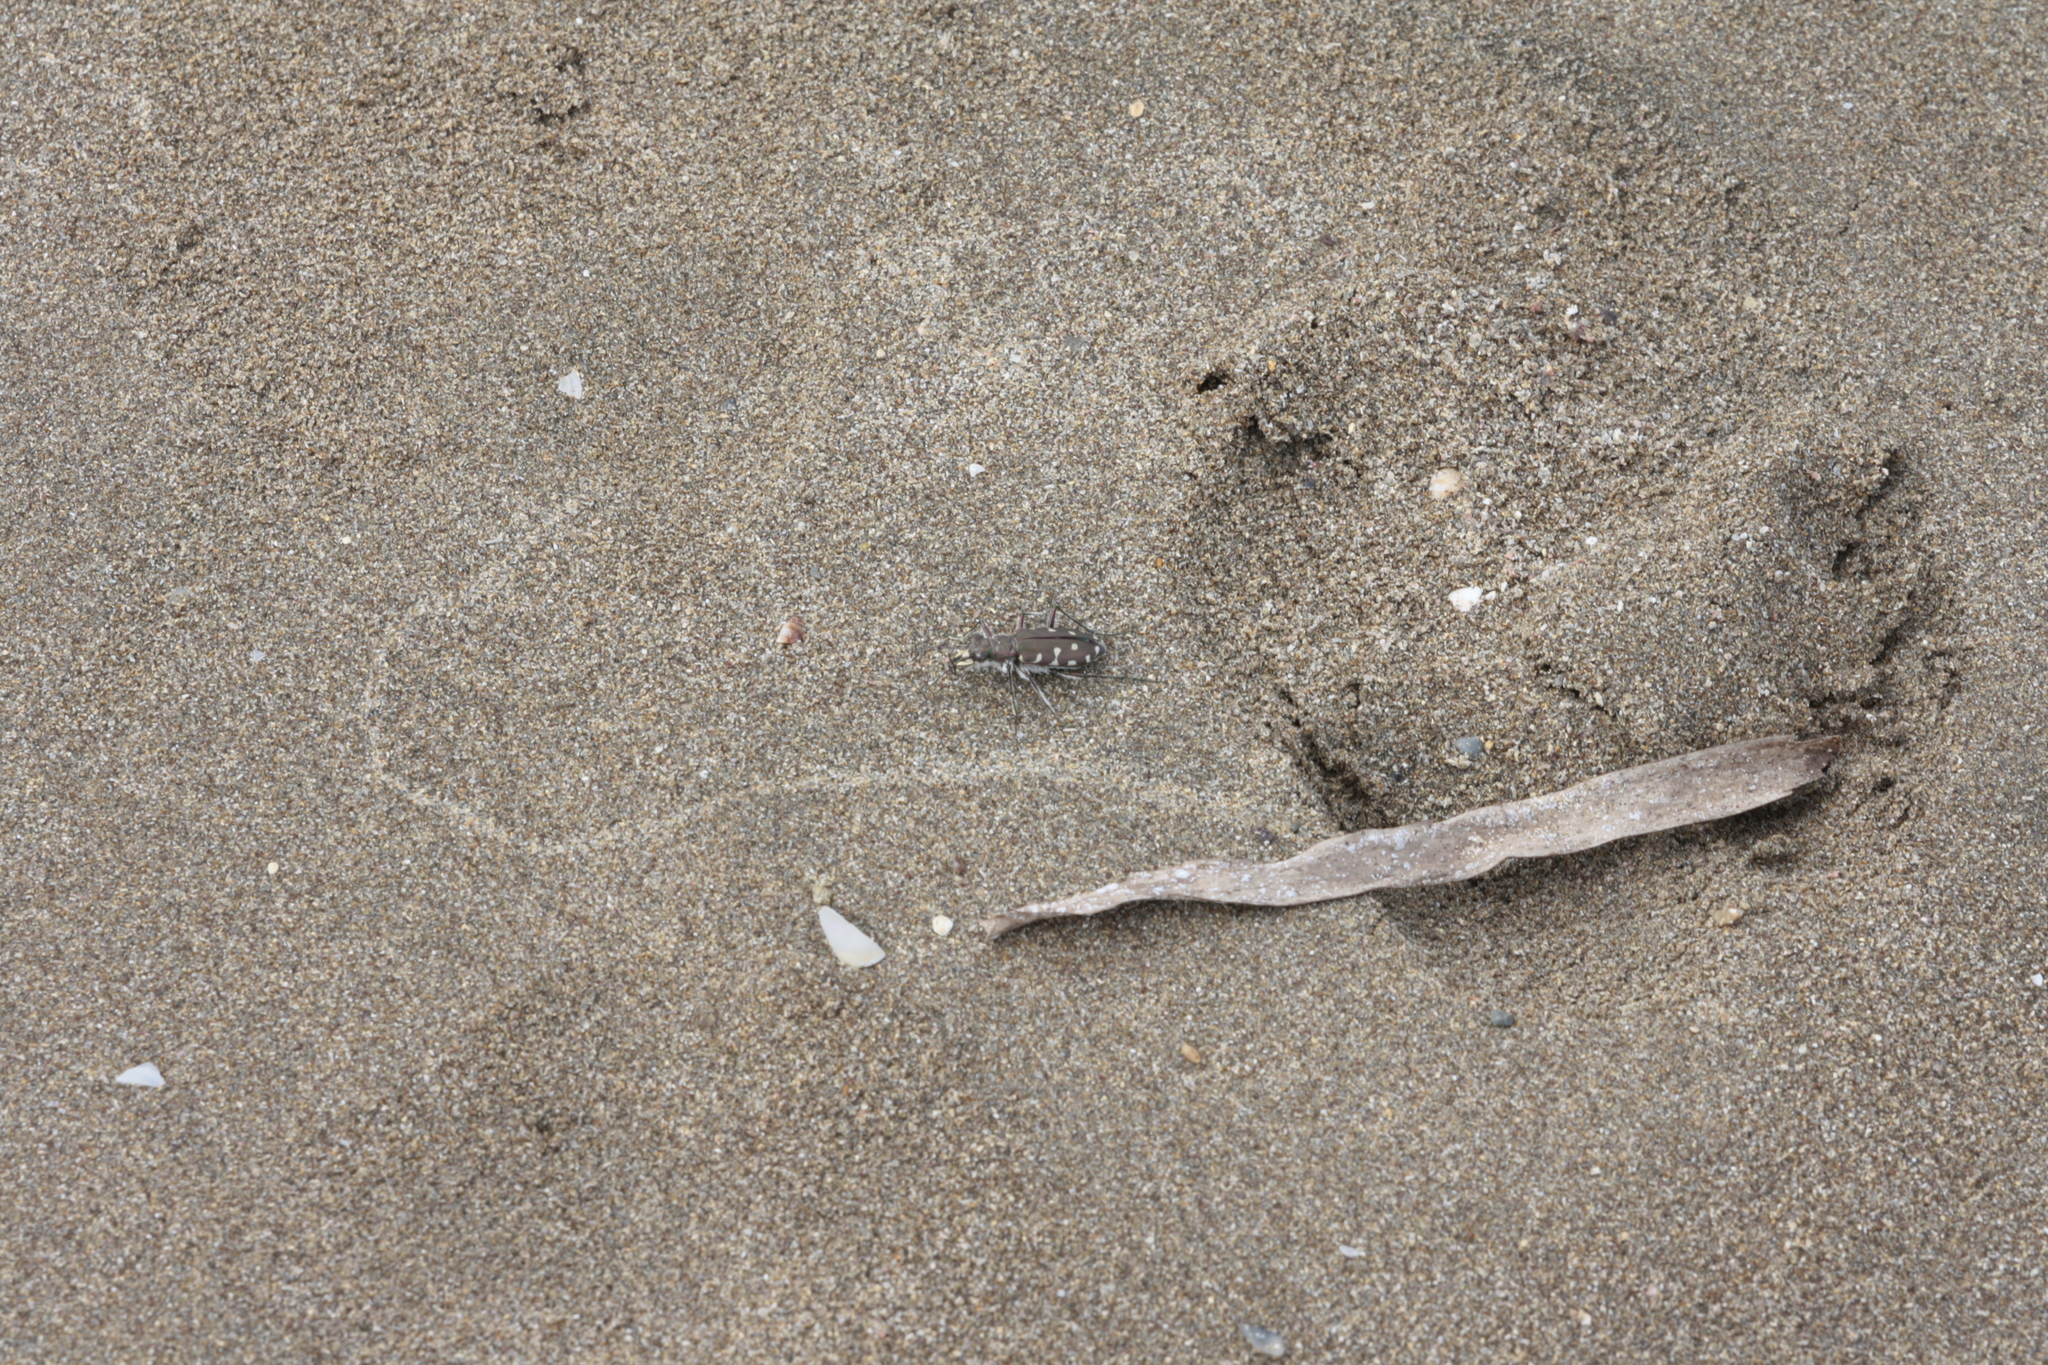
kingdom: Animalia
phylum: Arthropoda
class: Insecta
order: Coleoptera
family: Carabidae
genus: Cicindela
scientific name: Cicindela littoralis
